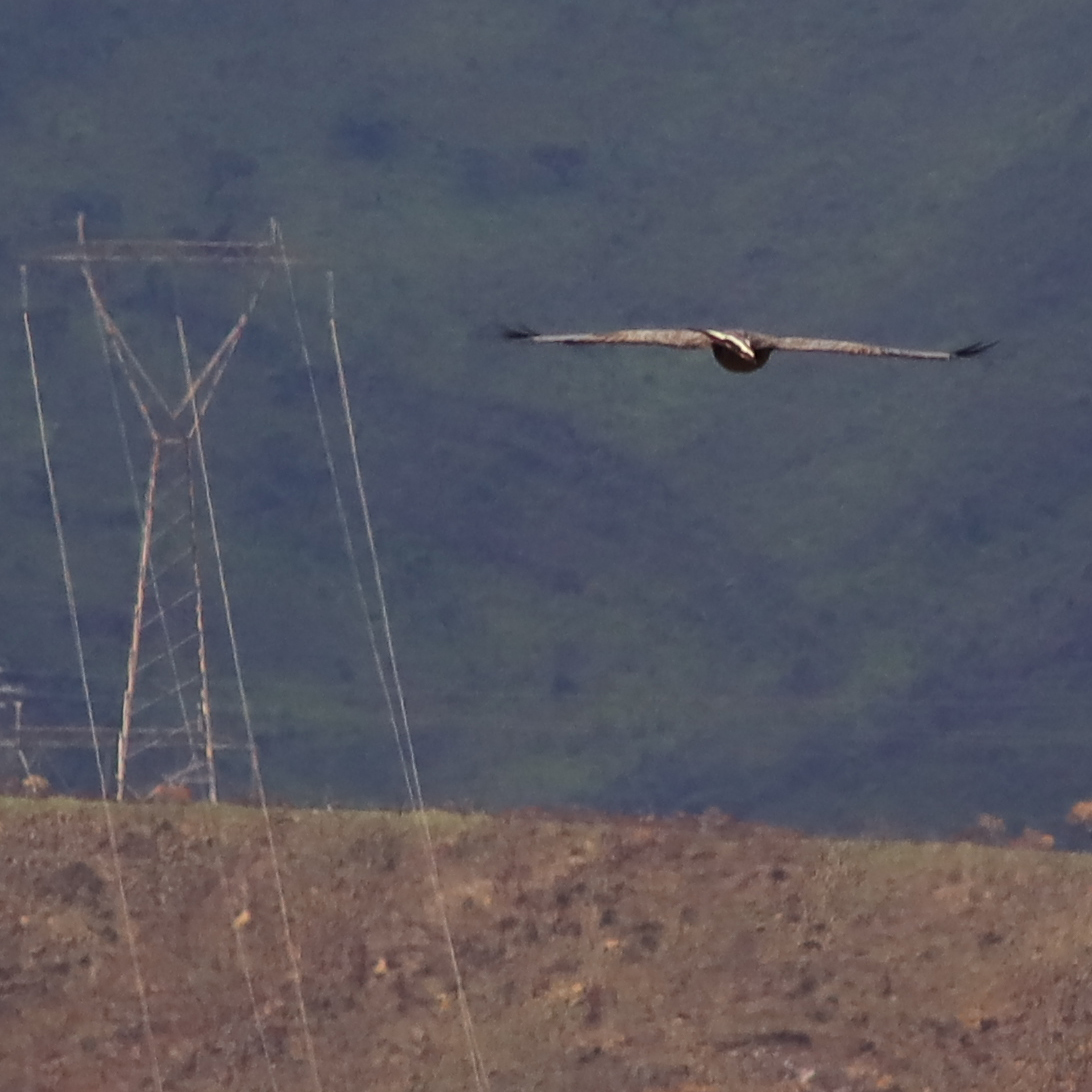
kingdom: Animalia
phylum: Chordata
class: Aves
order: Accipitriformes
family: Accipitridae
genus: Harpyhaliaetus
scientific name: Harpyhaliaetus coronatus
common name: Crowned solitary eagle
